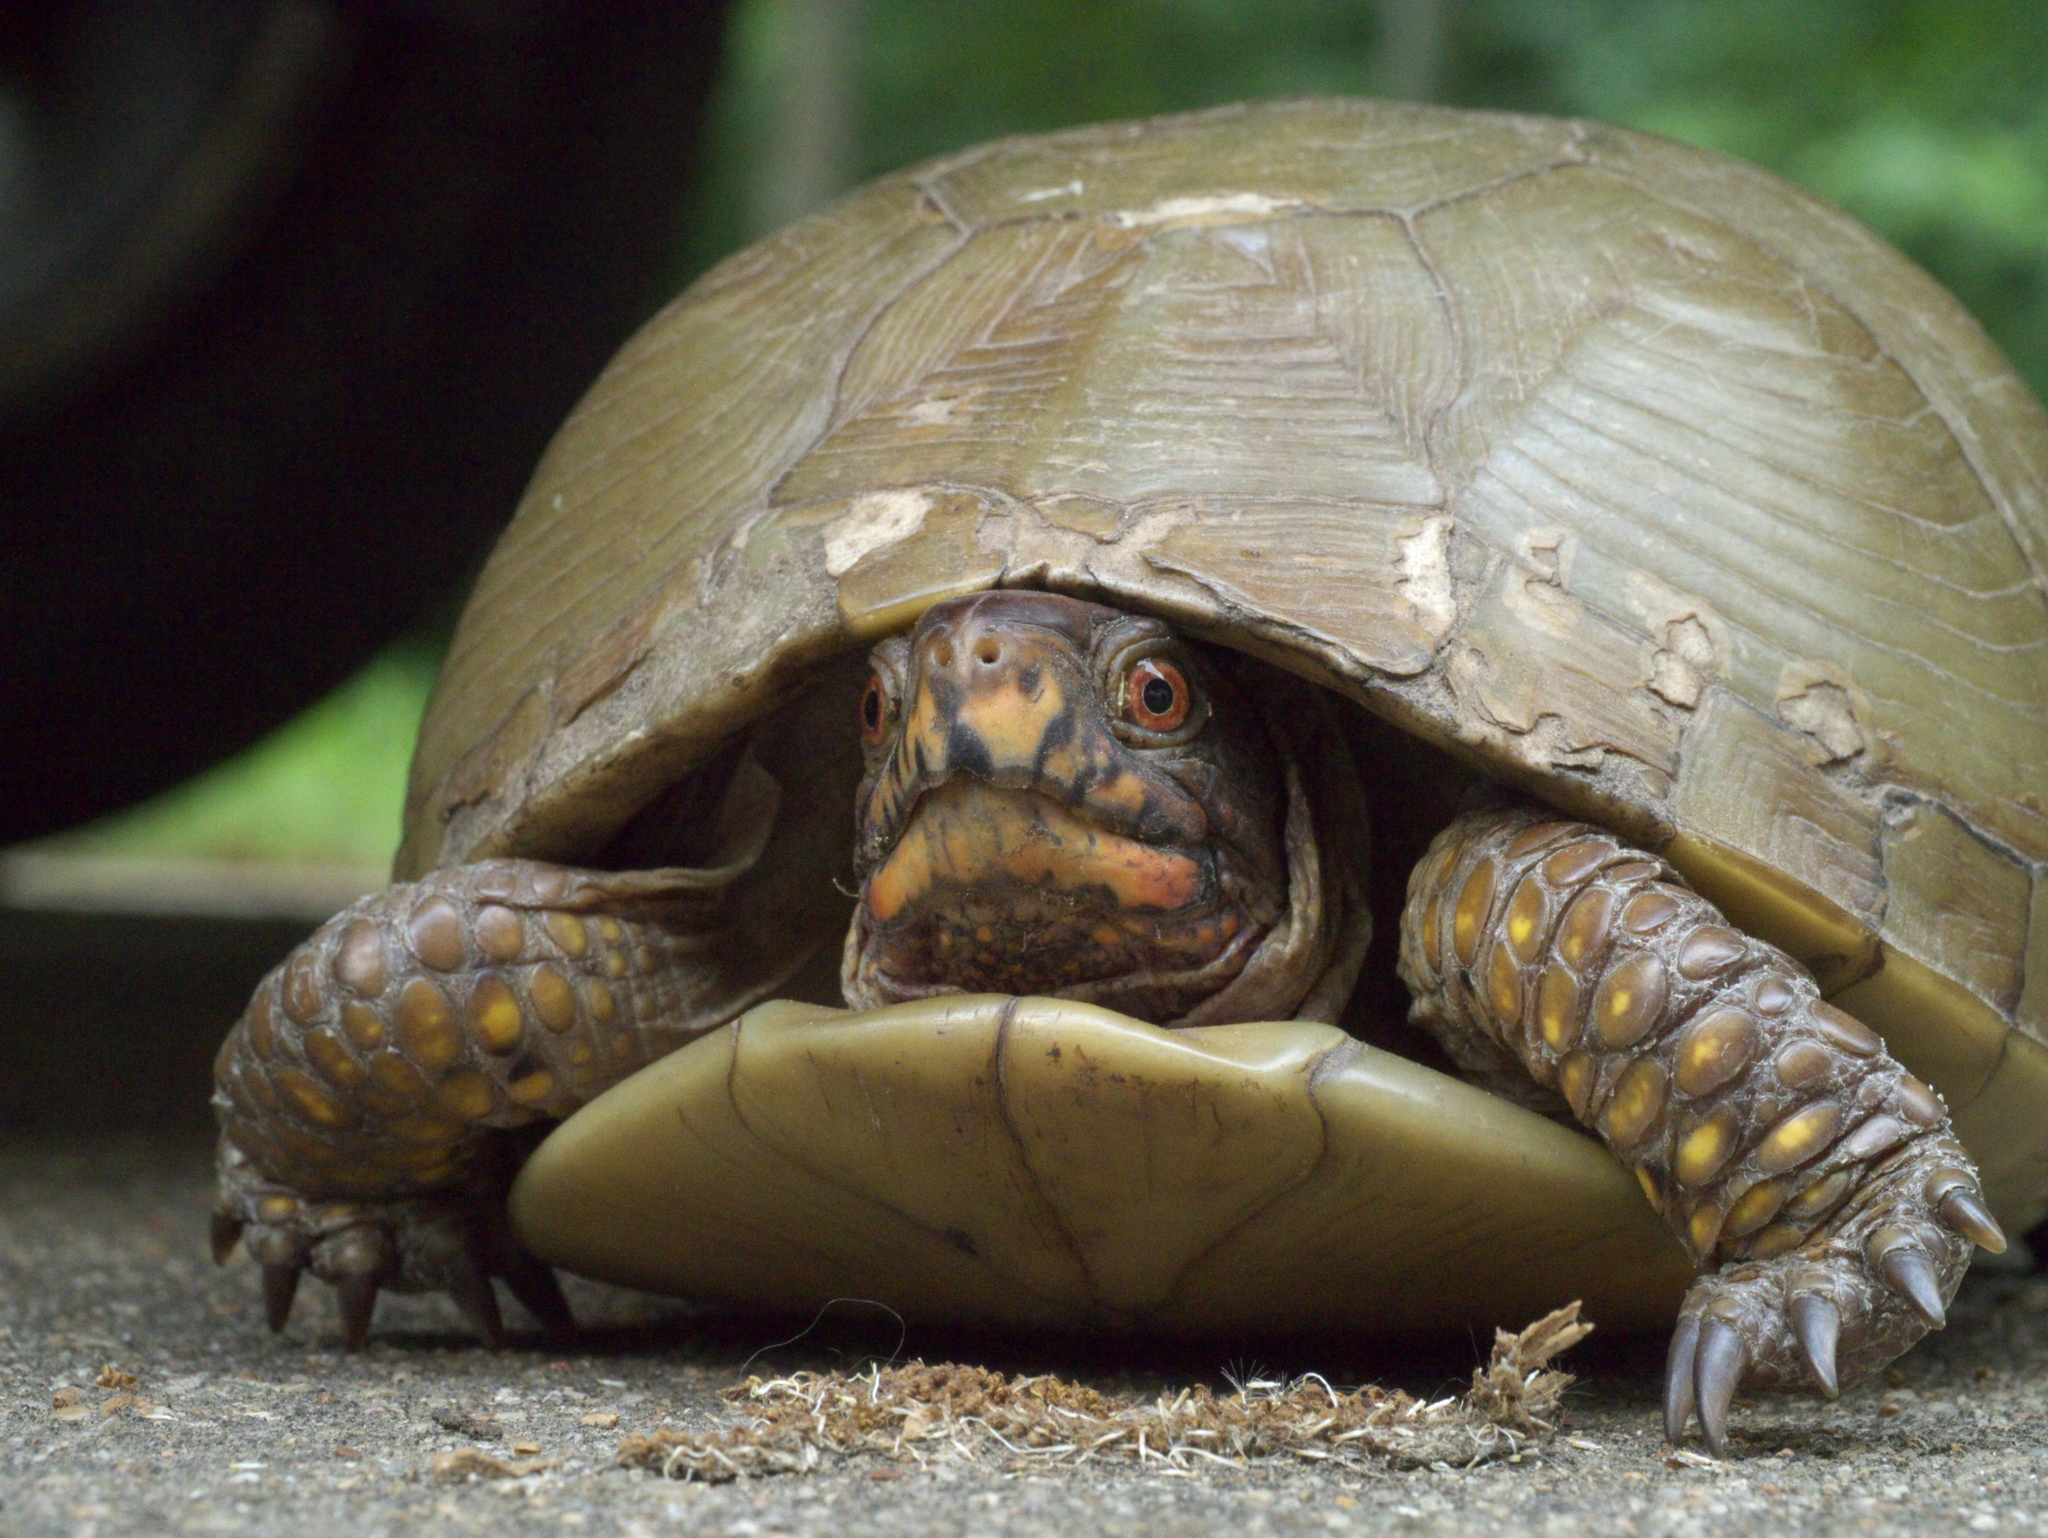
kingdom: Animalia
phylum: Chordata
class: Testudines
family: Emydidae
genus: Terrapene
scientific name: Terrapene carolina
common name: Common box turtle
